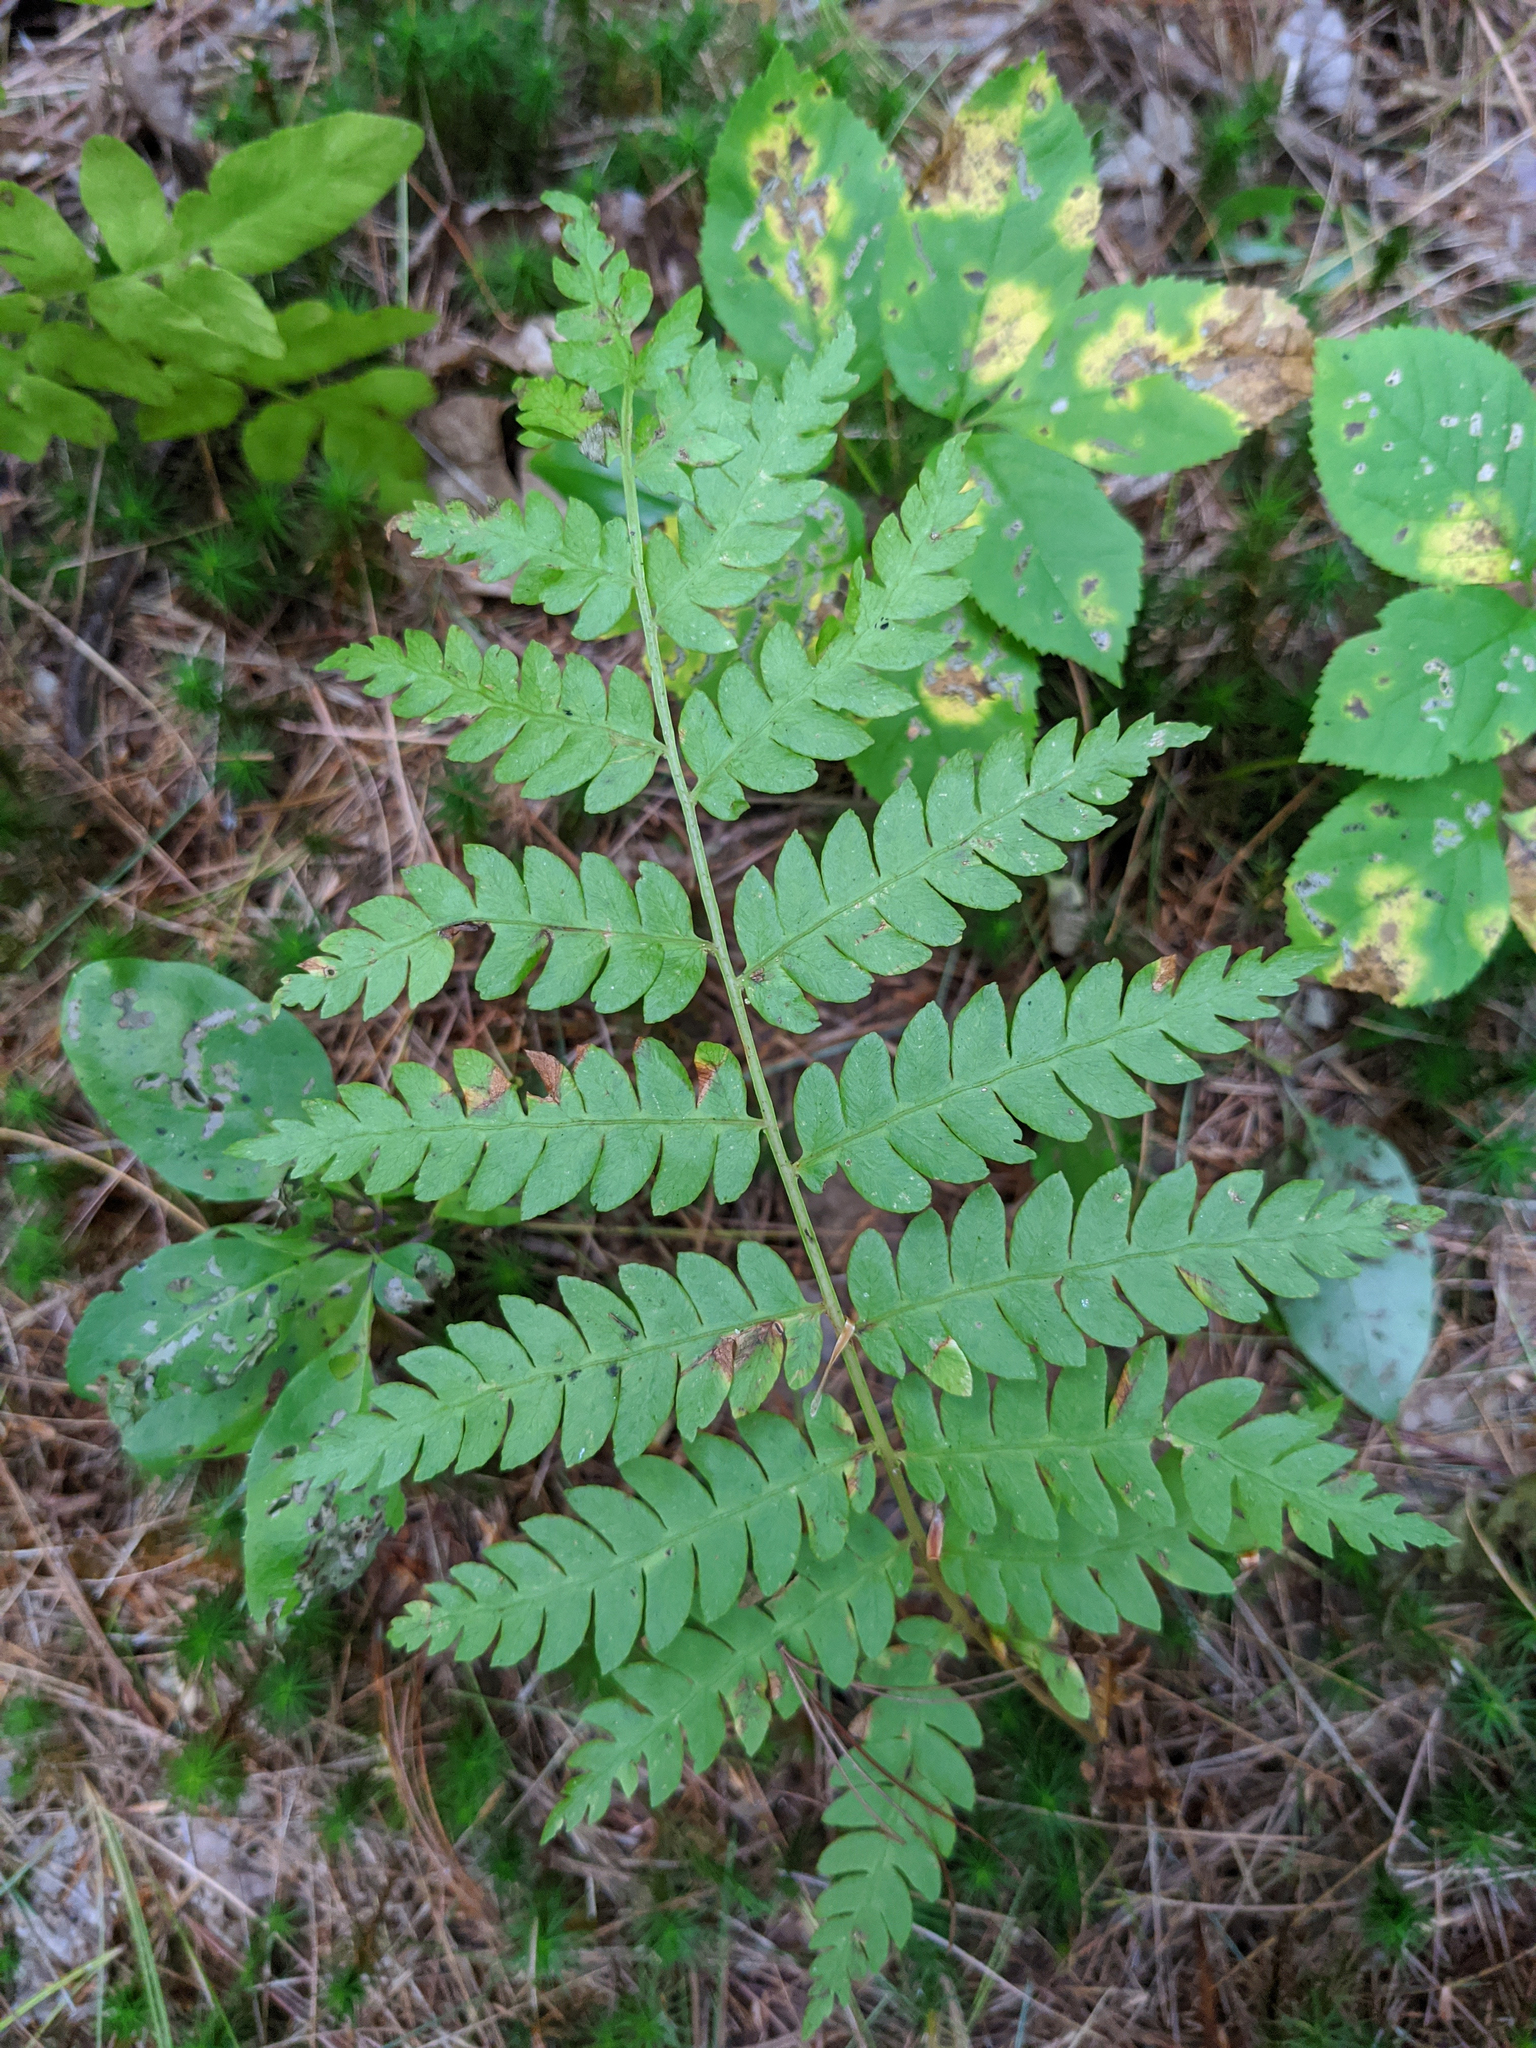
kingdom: Plantae
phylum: Tracheophyta
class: Polypodiopsida
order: Osmundales
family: Osmundaceae
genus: Osmundastrum
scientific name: Osmundastrum cinnamomeum
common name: Cinnamon fern
